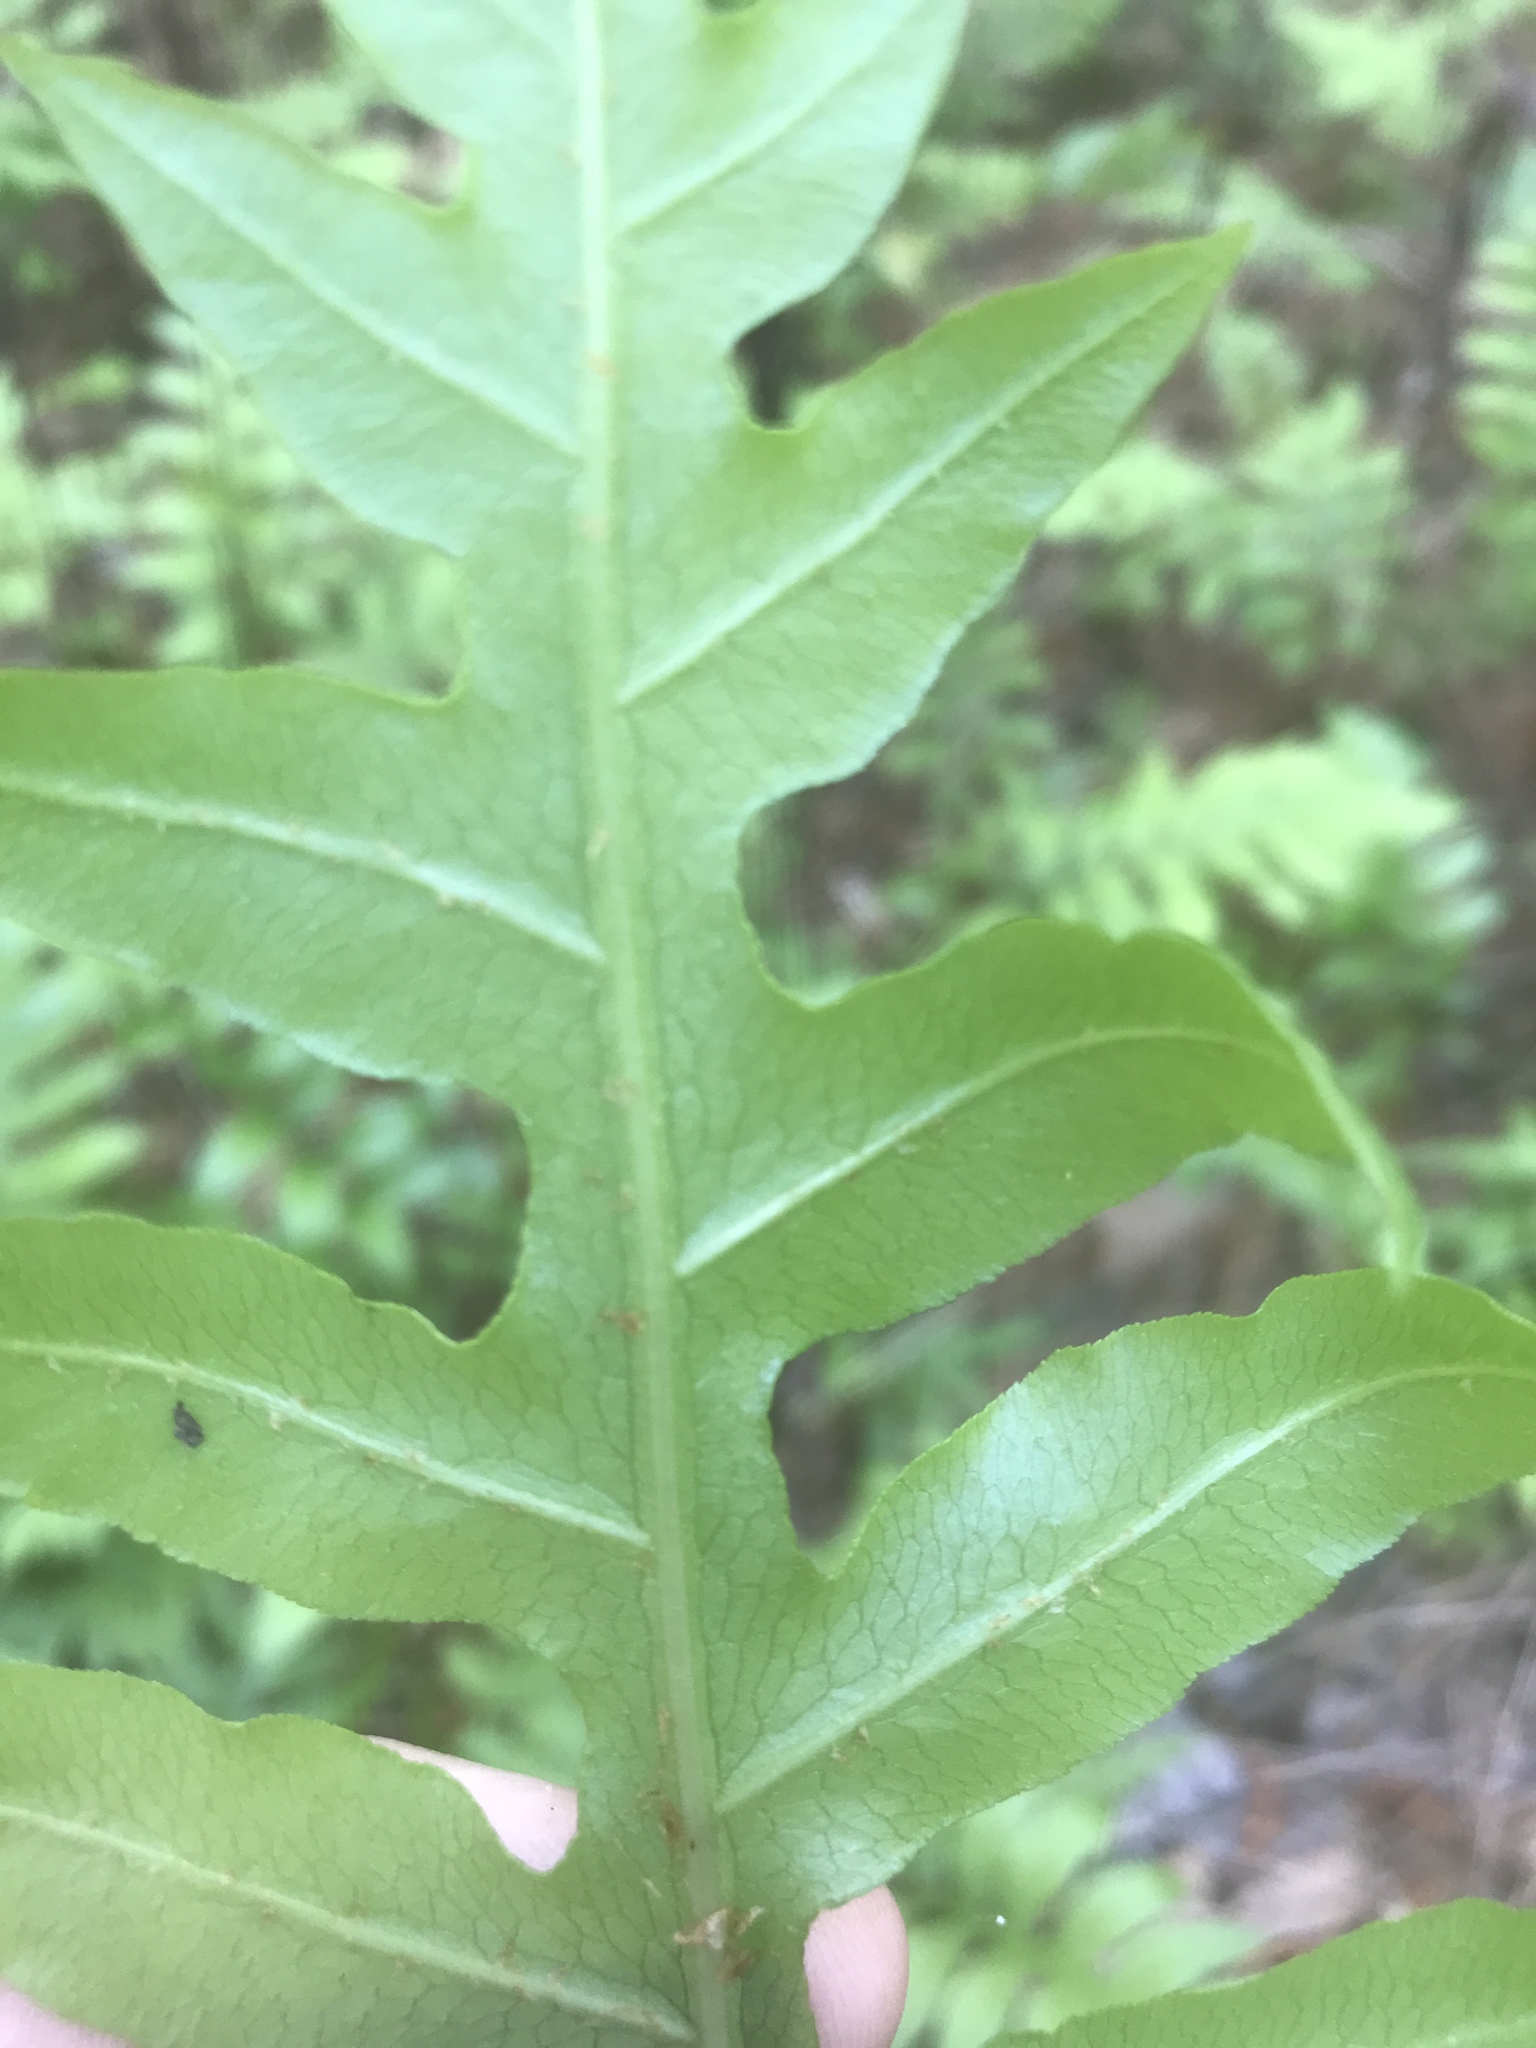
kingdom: Plantae
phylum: Tracheophyta
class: Polypodiopsida
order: Polypodiales
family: Blechnaceae
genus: Lorinseria
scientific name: Lorinseria areolata
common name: Dwarf chain fern
